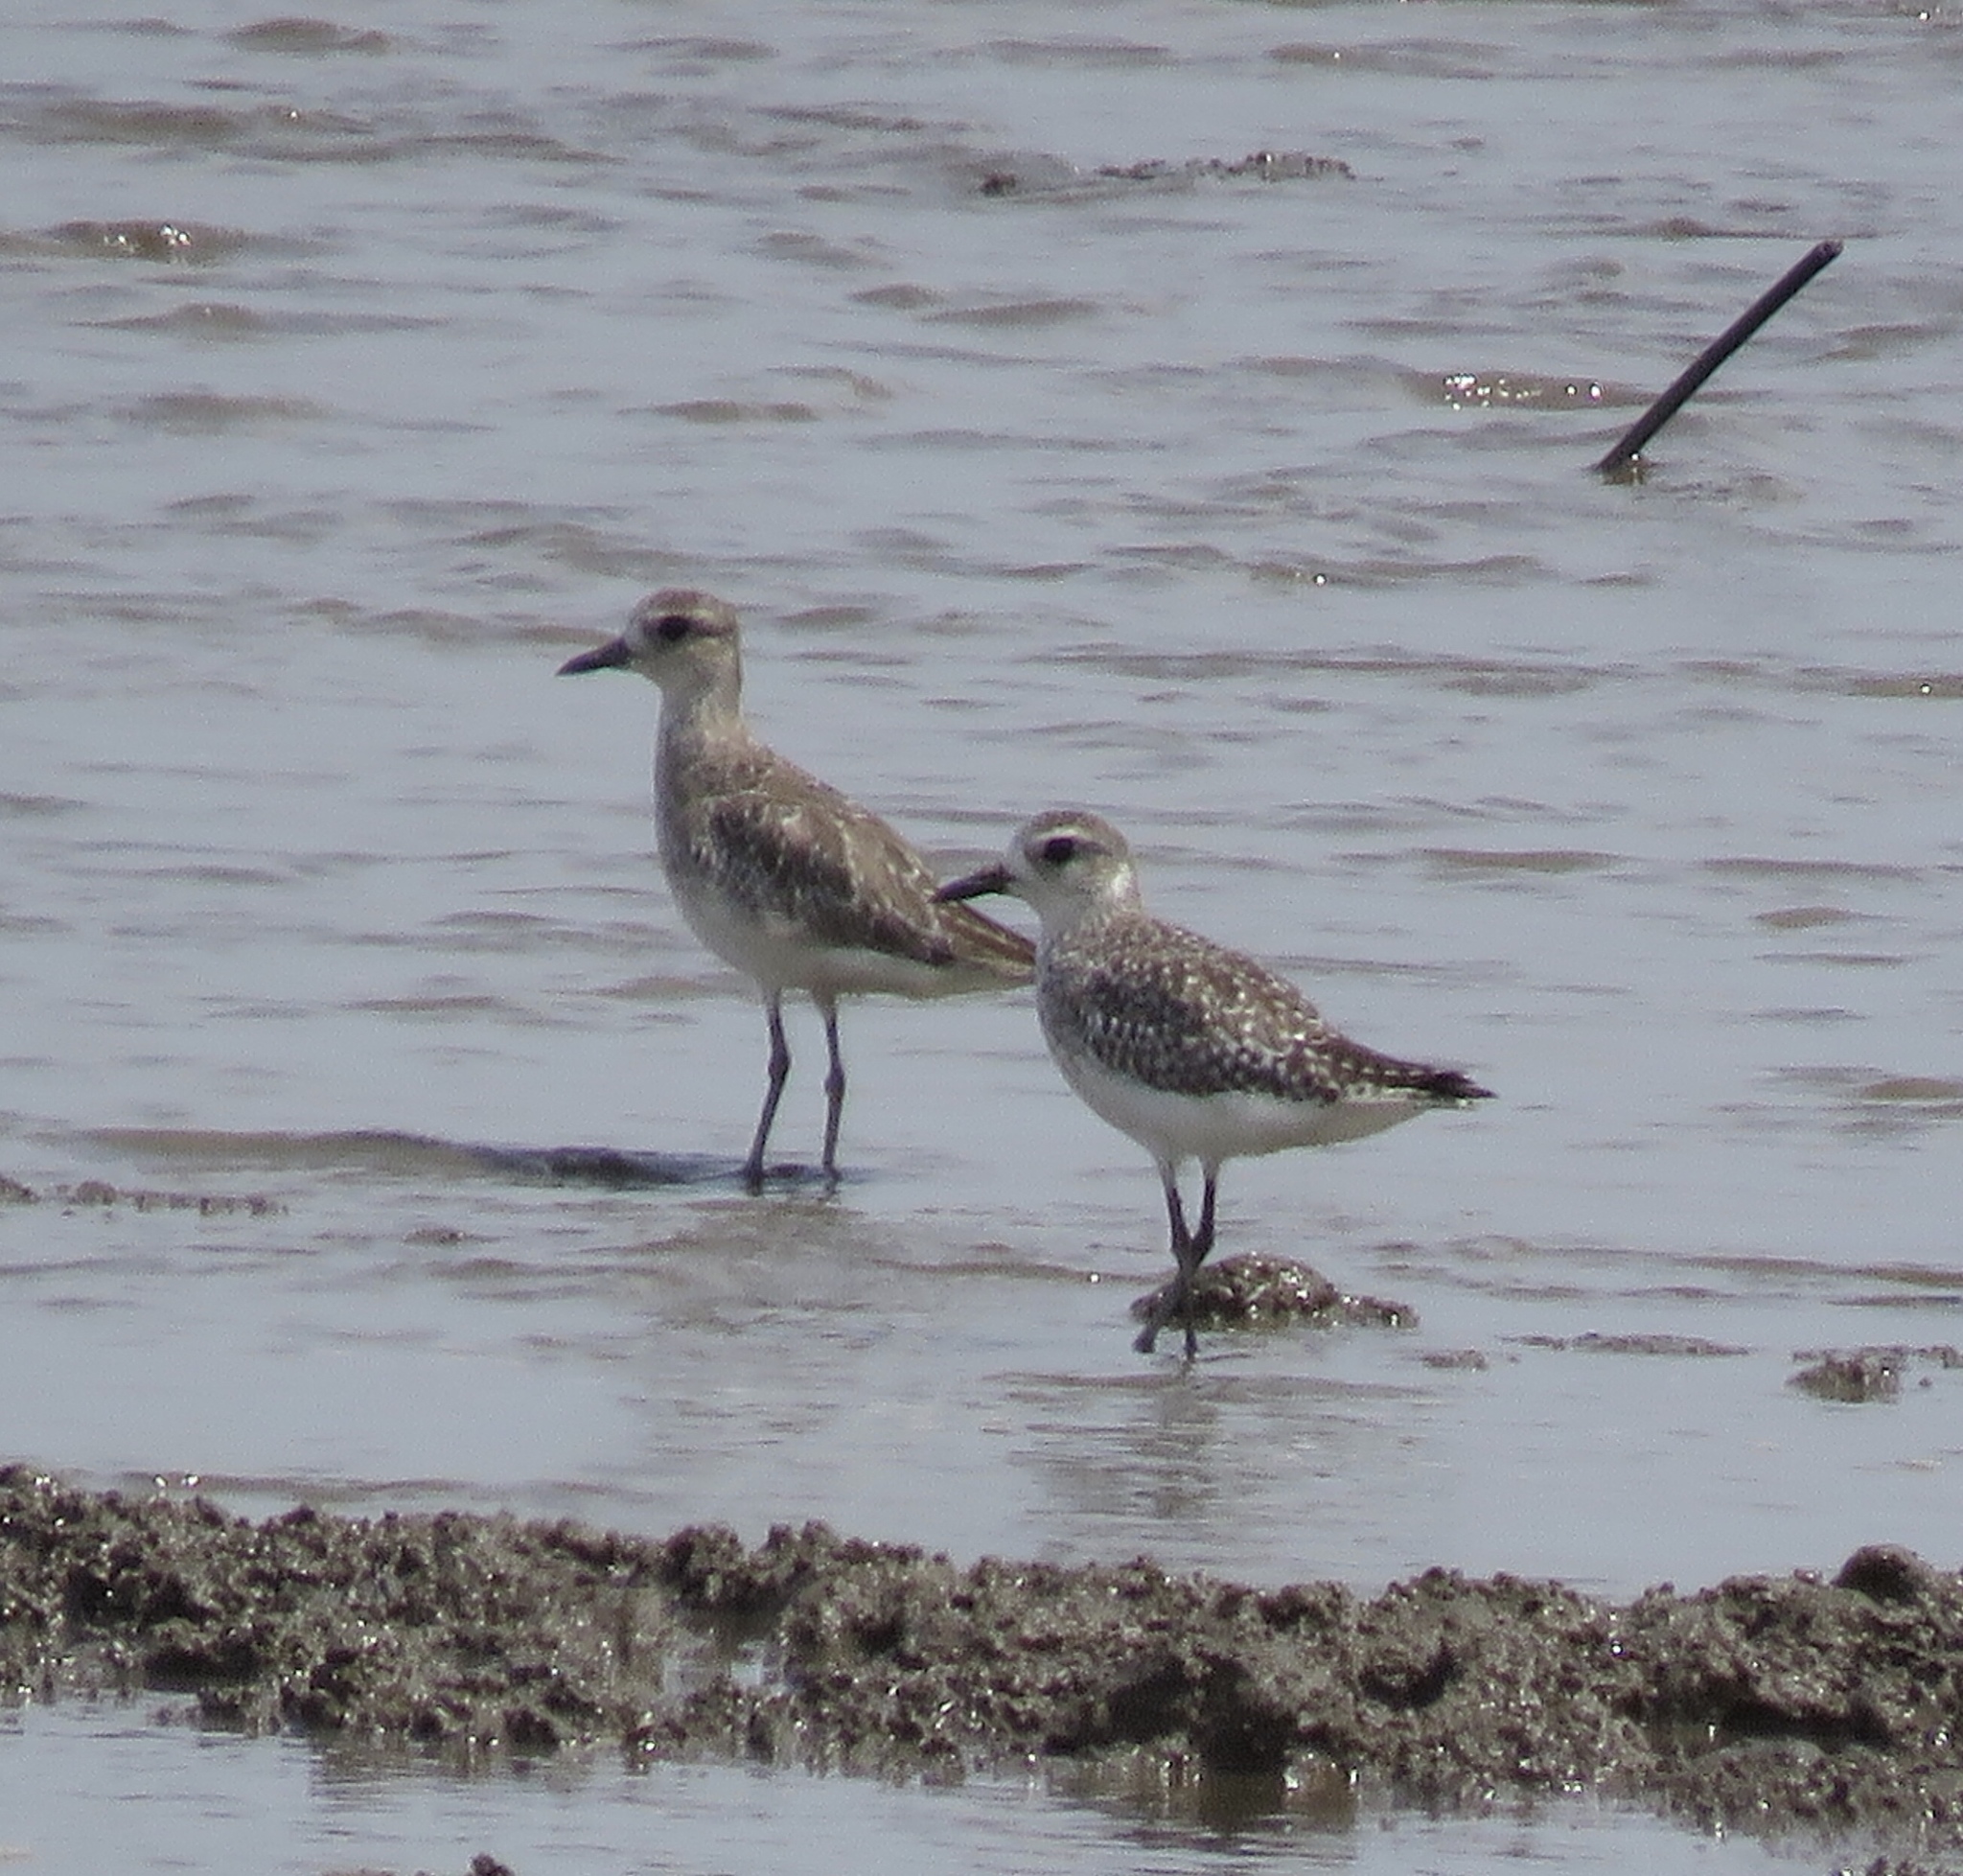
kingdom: Animalia
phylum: Chordata
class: Aves
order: Charadriiformes
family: Charadriidae
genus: Pluvialis
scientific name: Pluvialis squatarola
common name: Grey plover
